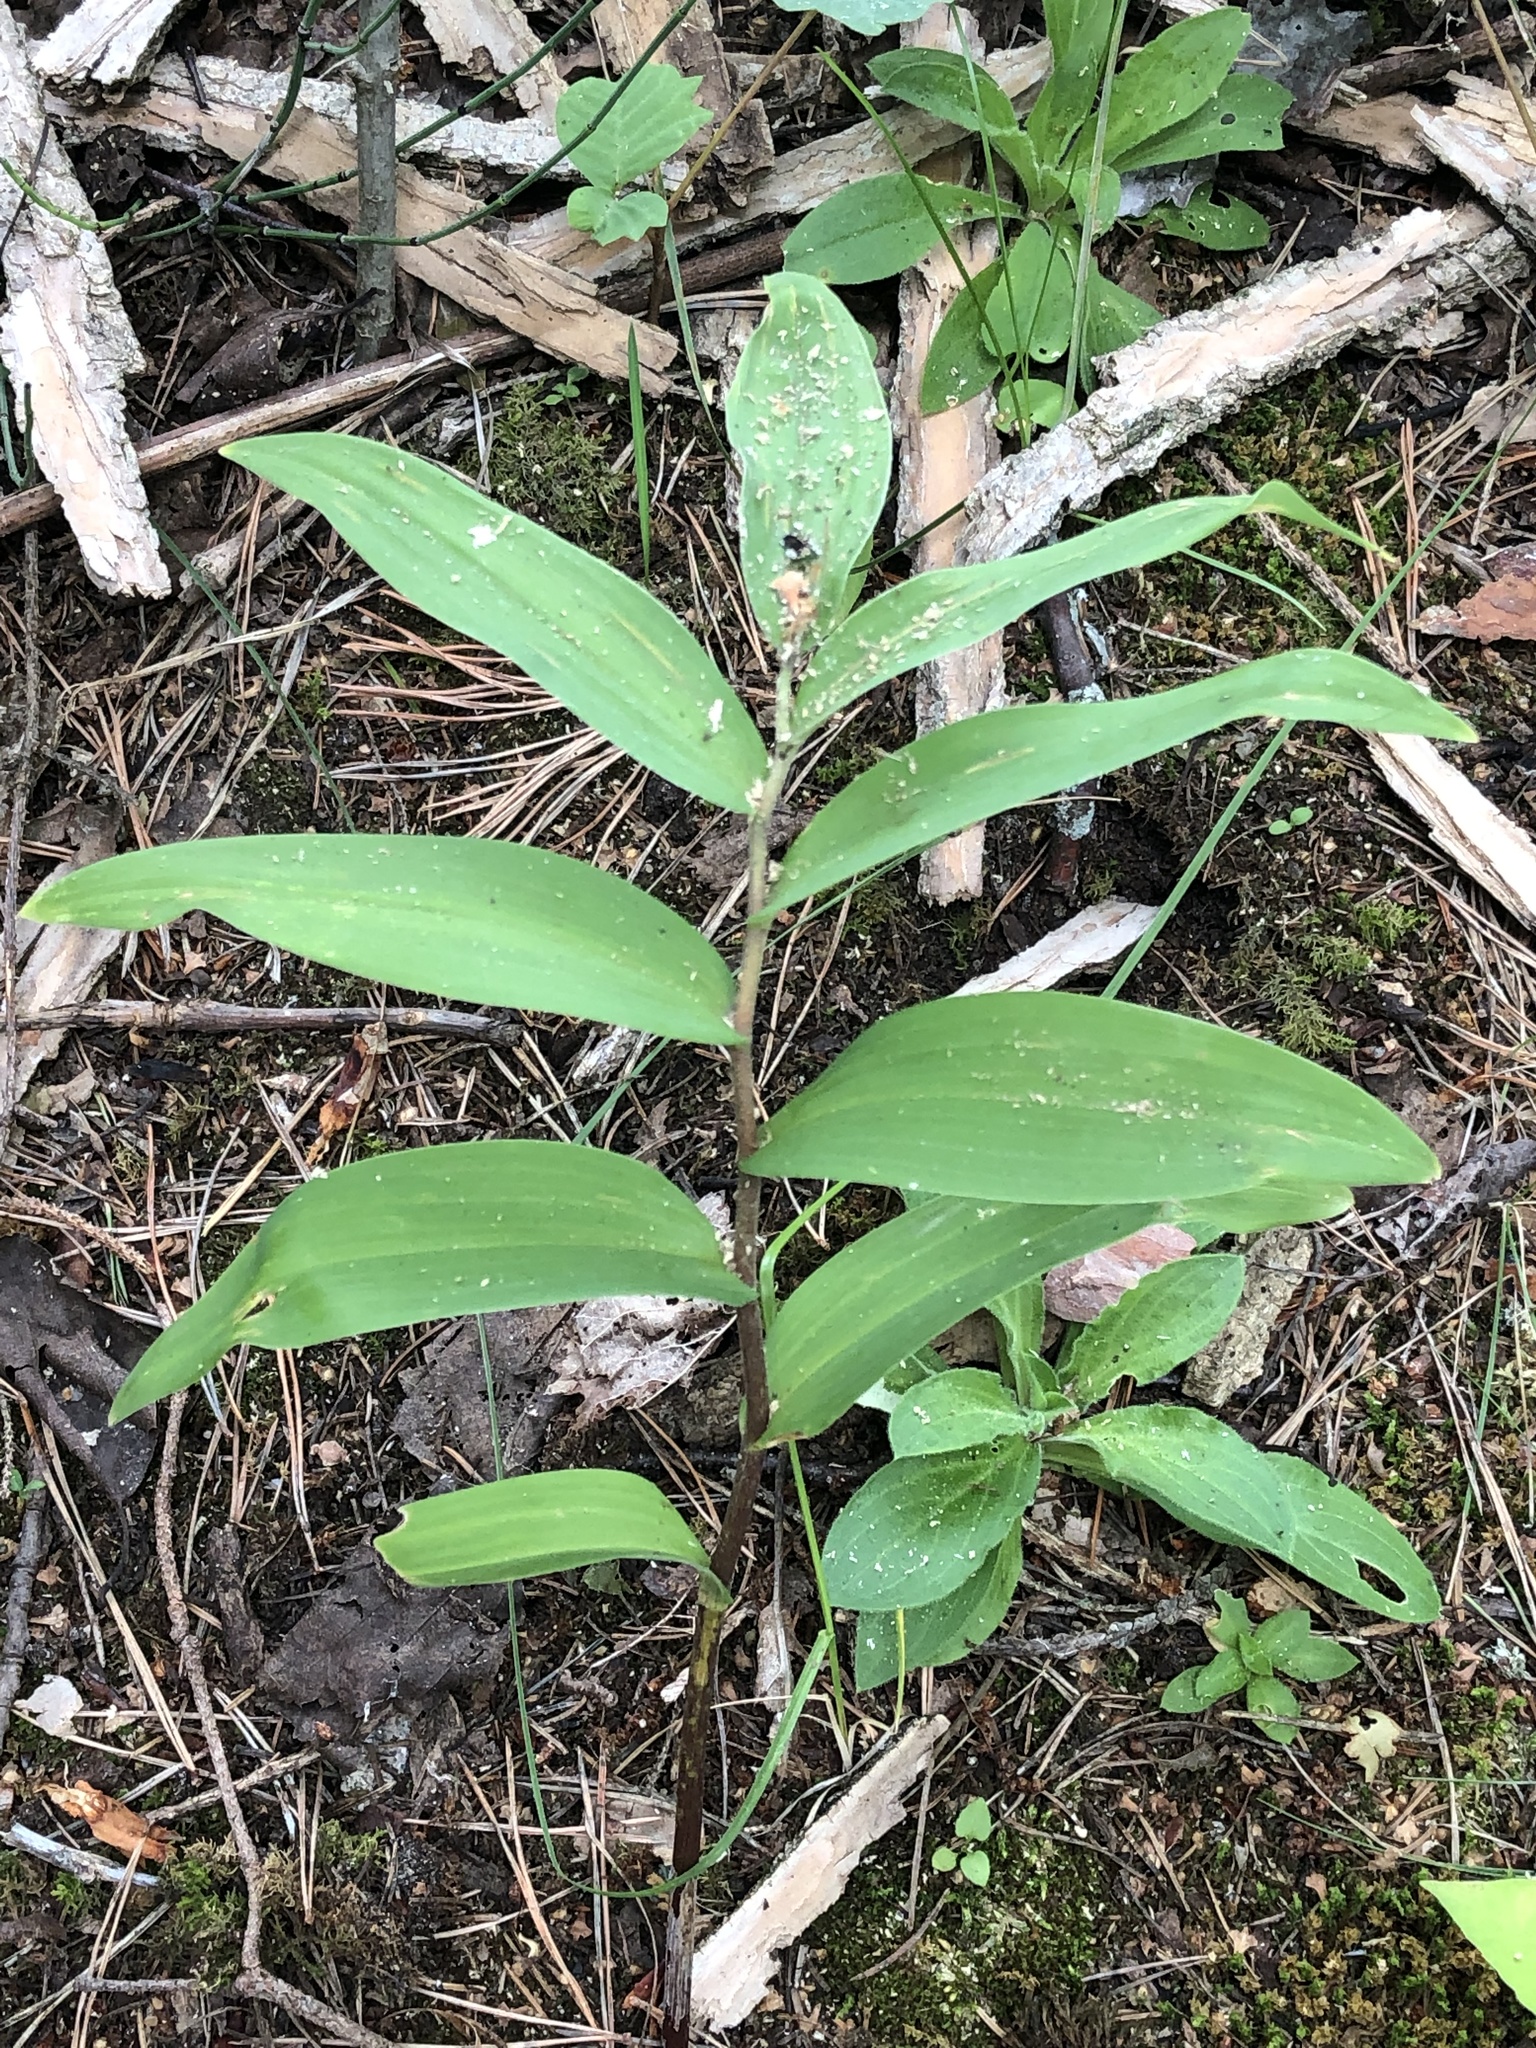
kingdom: Plantae
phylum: Tracheophyta
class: Liliopsida
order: Asparagales
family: Asparagaceae
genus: Maianthemum
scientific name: Maianthemum stellatum
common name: Little false solomon's seal
